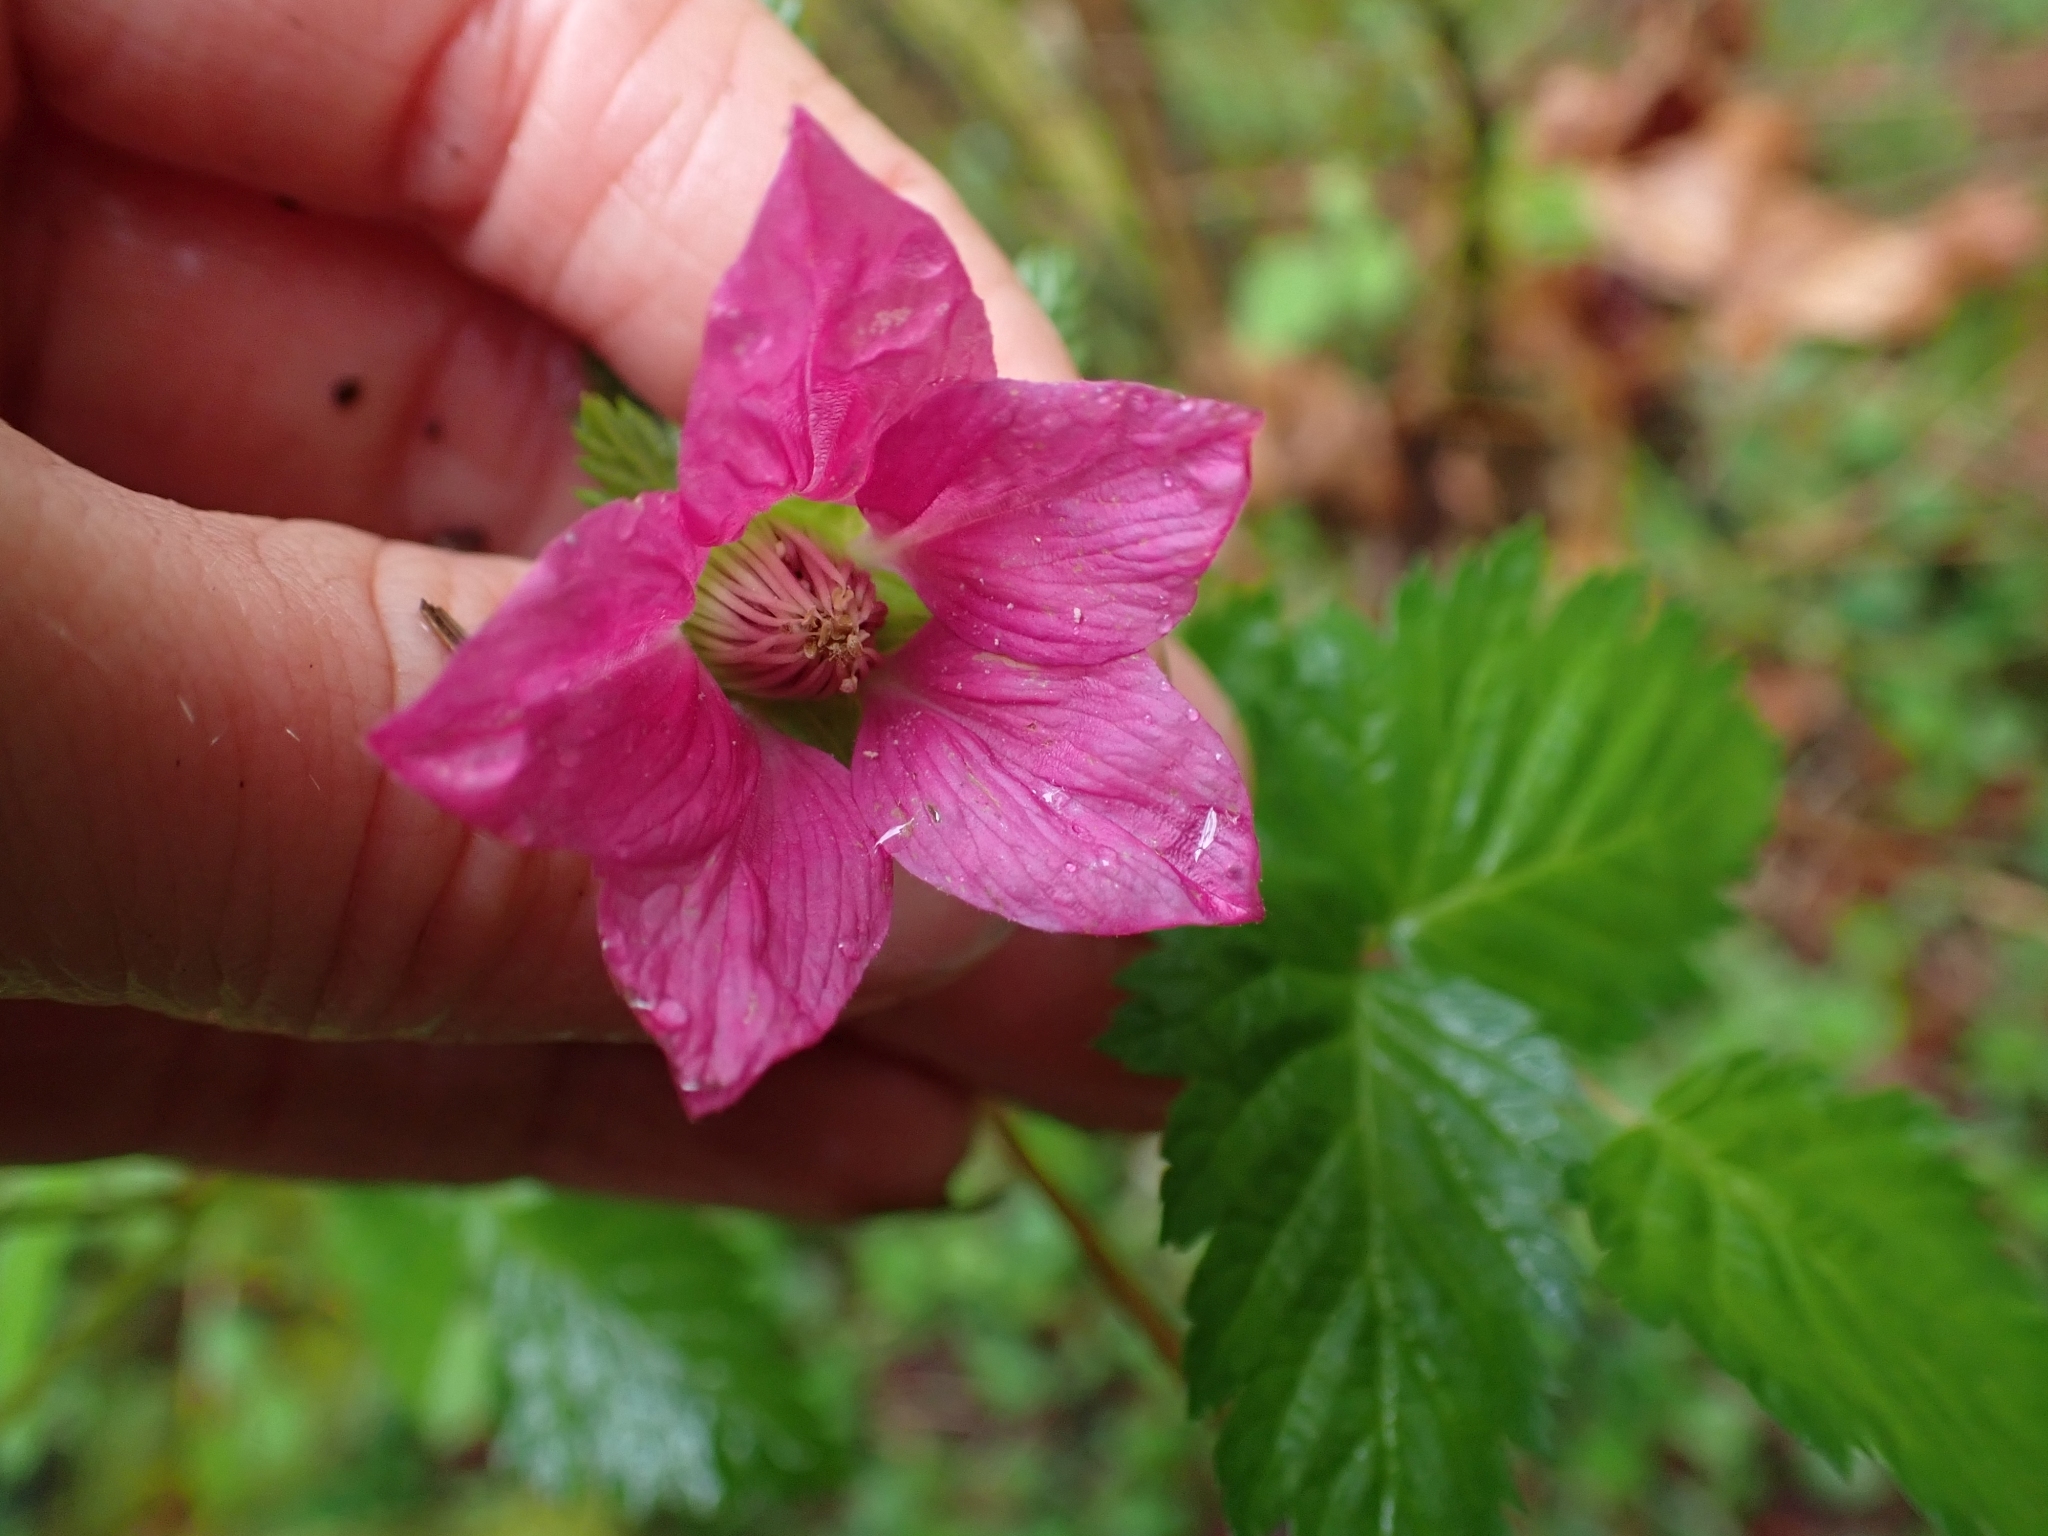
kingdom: Plantae
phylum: Tracheophyta
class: Magnoliopsida
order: Rosales
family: Rosaceae
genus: Rubus
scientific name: Rubus spectabilis
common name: Salmonberry
